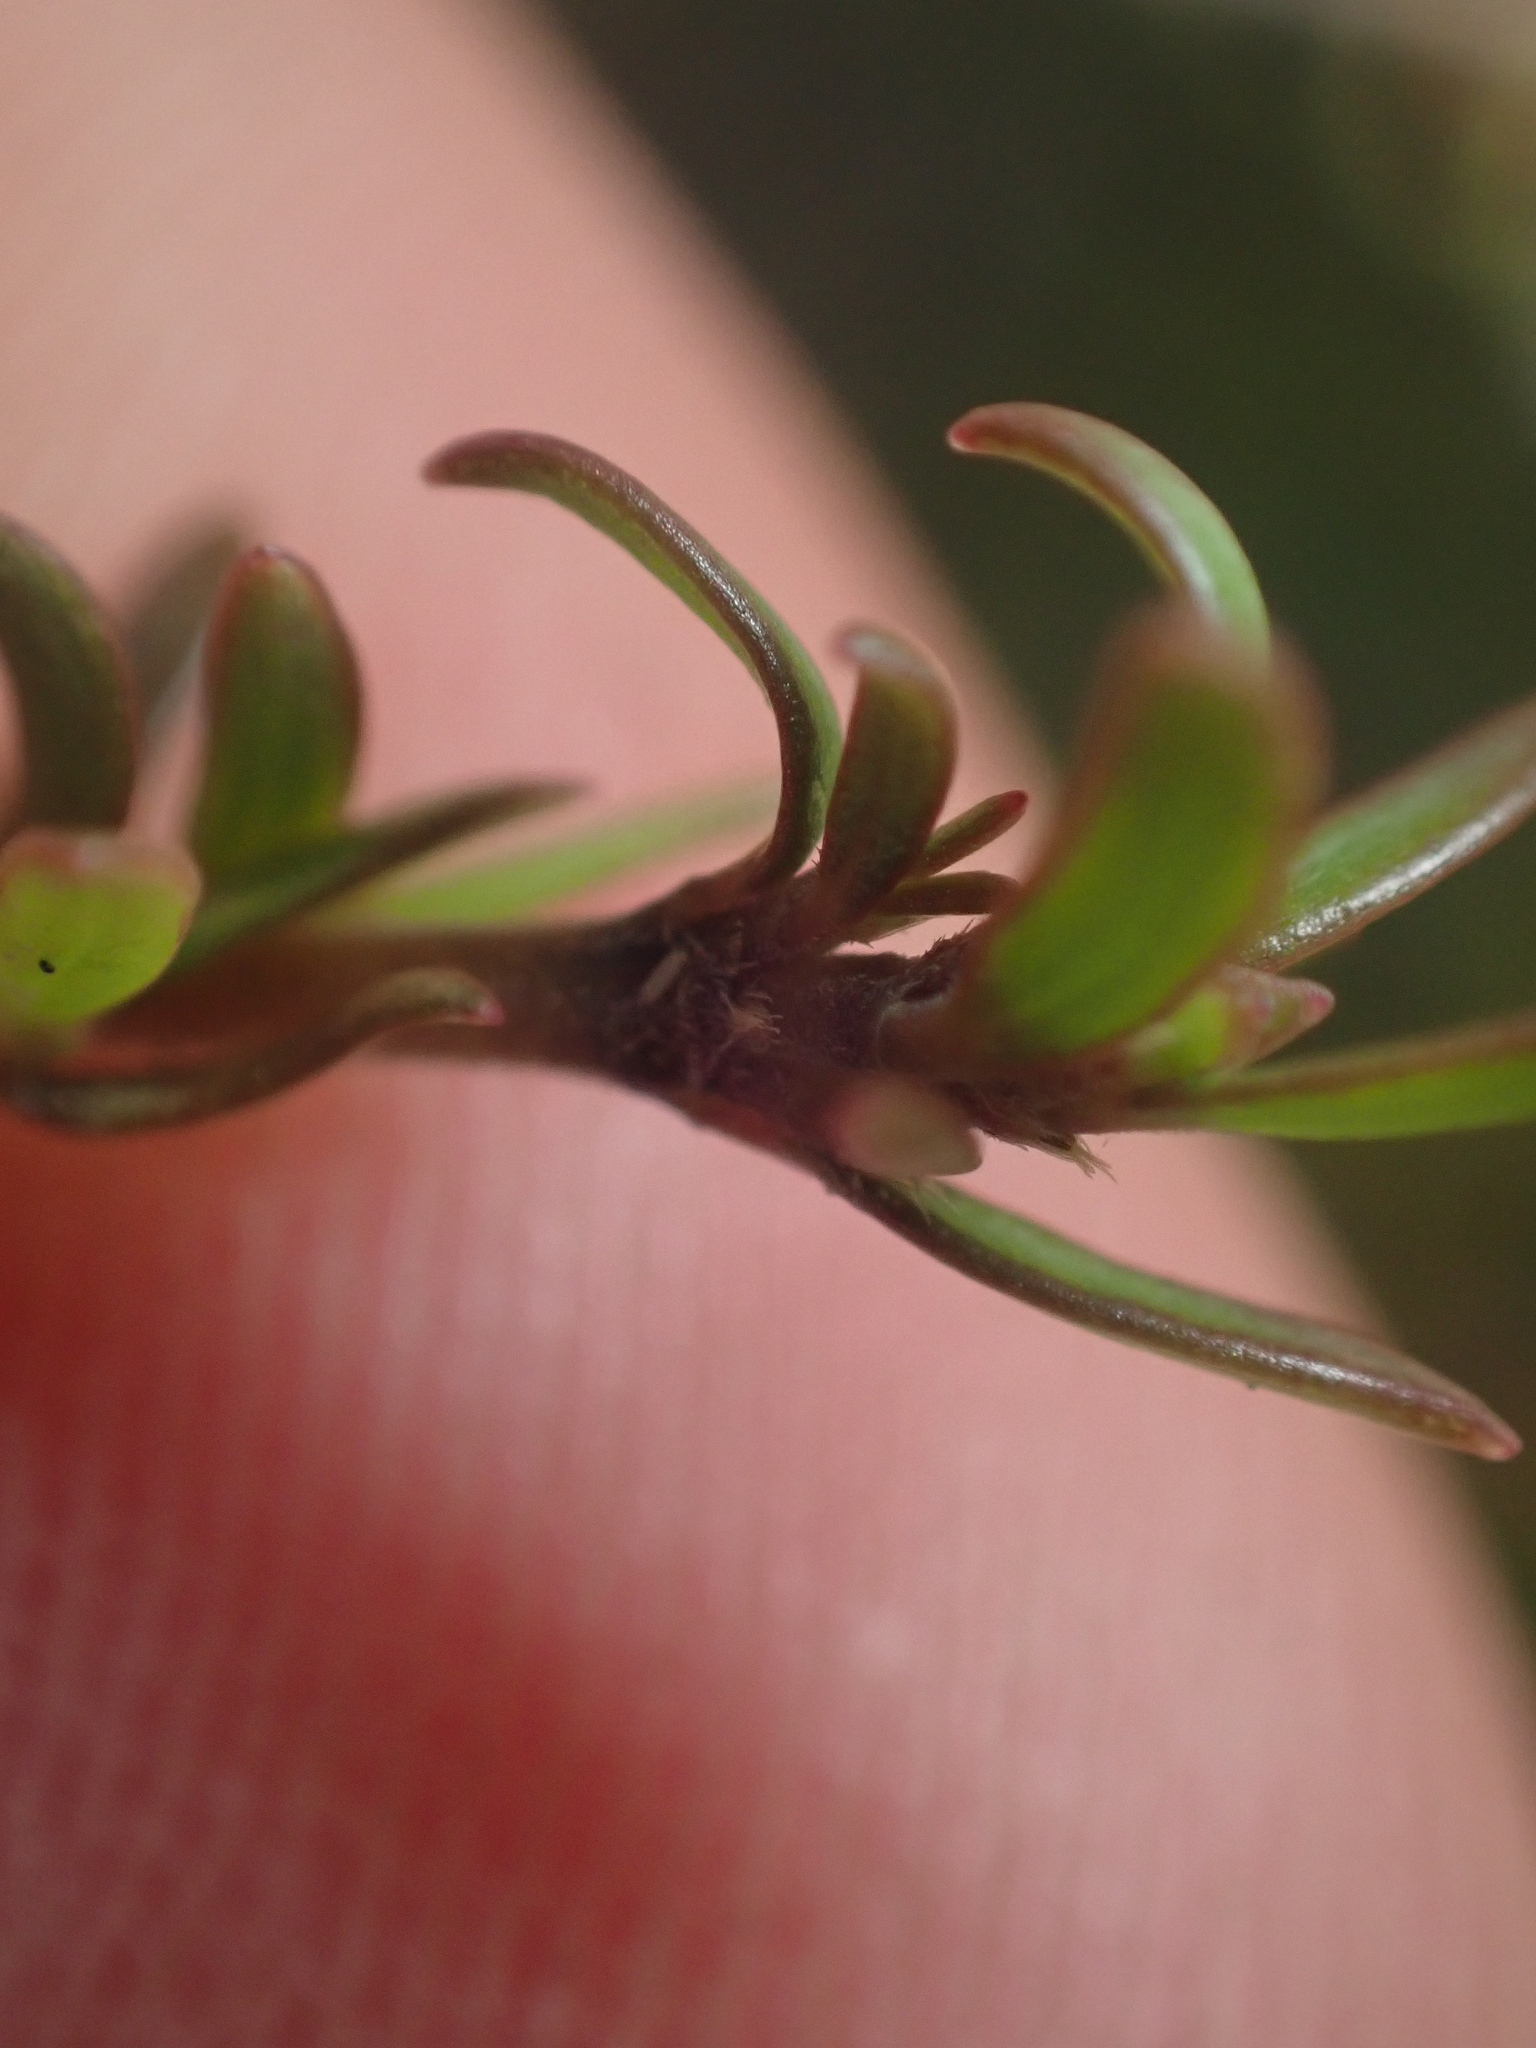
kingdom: Plantae
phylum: Tracheophyta
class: Magnoliopsida
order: Gentianales
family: Rubiaceae
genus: Coprosma
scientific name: Coprosma microcarpa
